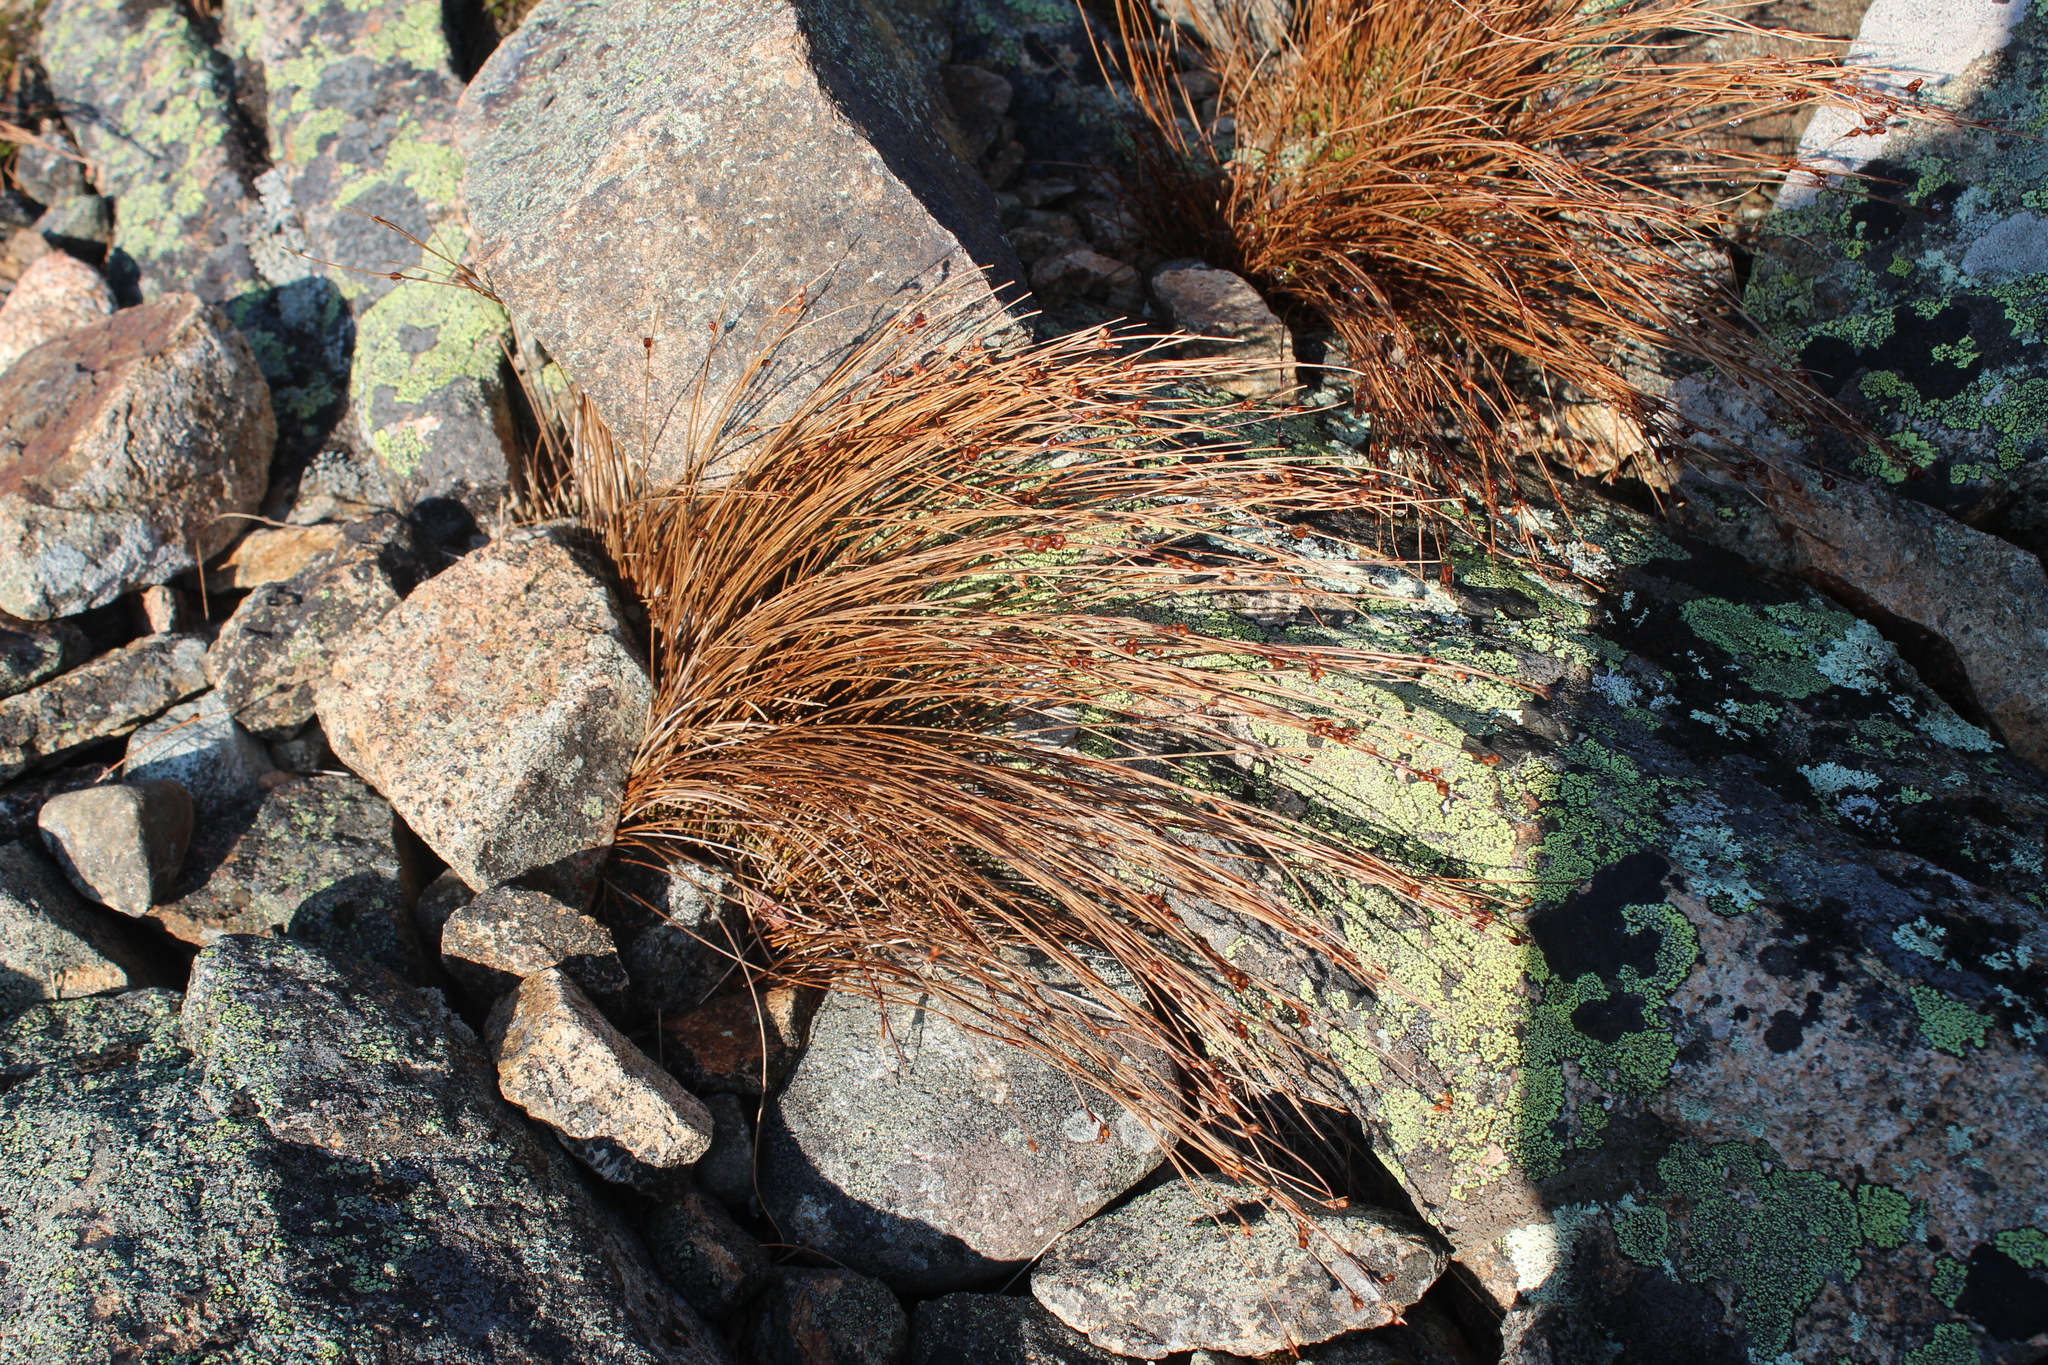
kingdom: Plantae
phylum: Tracheophyta
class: Liliopsida
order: Poales
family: Juncaceae
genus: Oreojuncus
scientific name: Oreojuncus trifidus
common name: Highland rush
